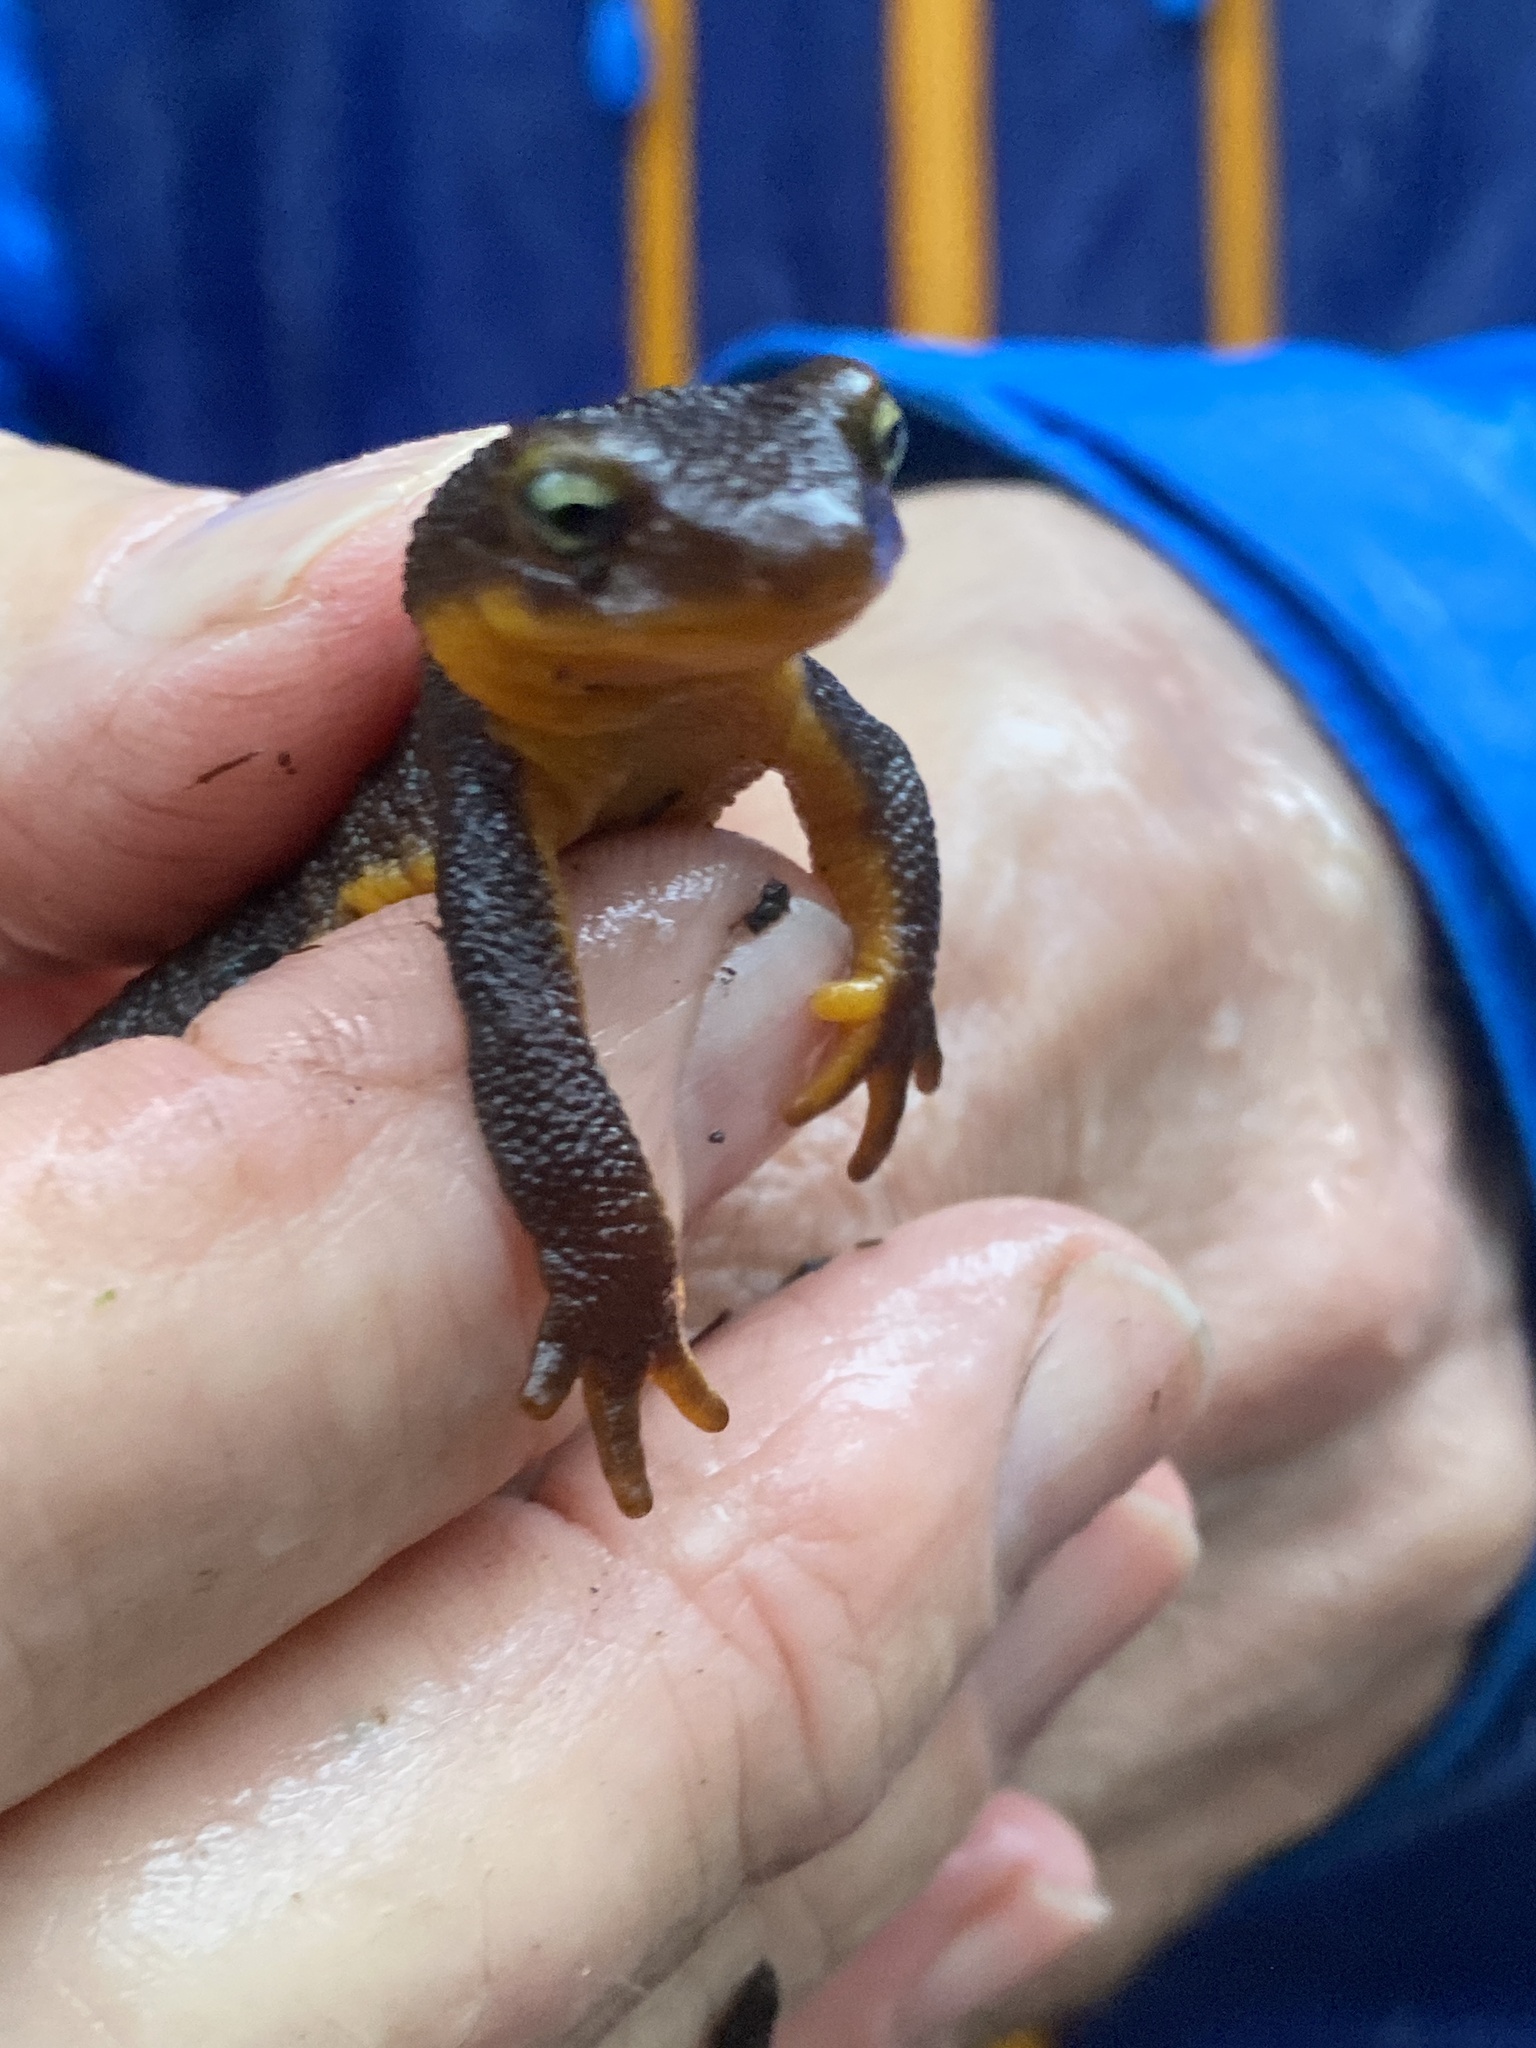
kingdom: Animalia
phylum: Chordata
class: Amphibia
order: Caudata
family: Salamandridae
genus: Taricha
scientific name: Taricha granulosa
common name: Roughskin newt
